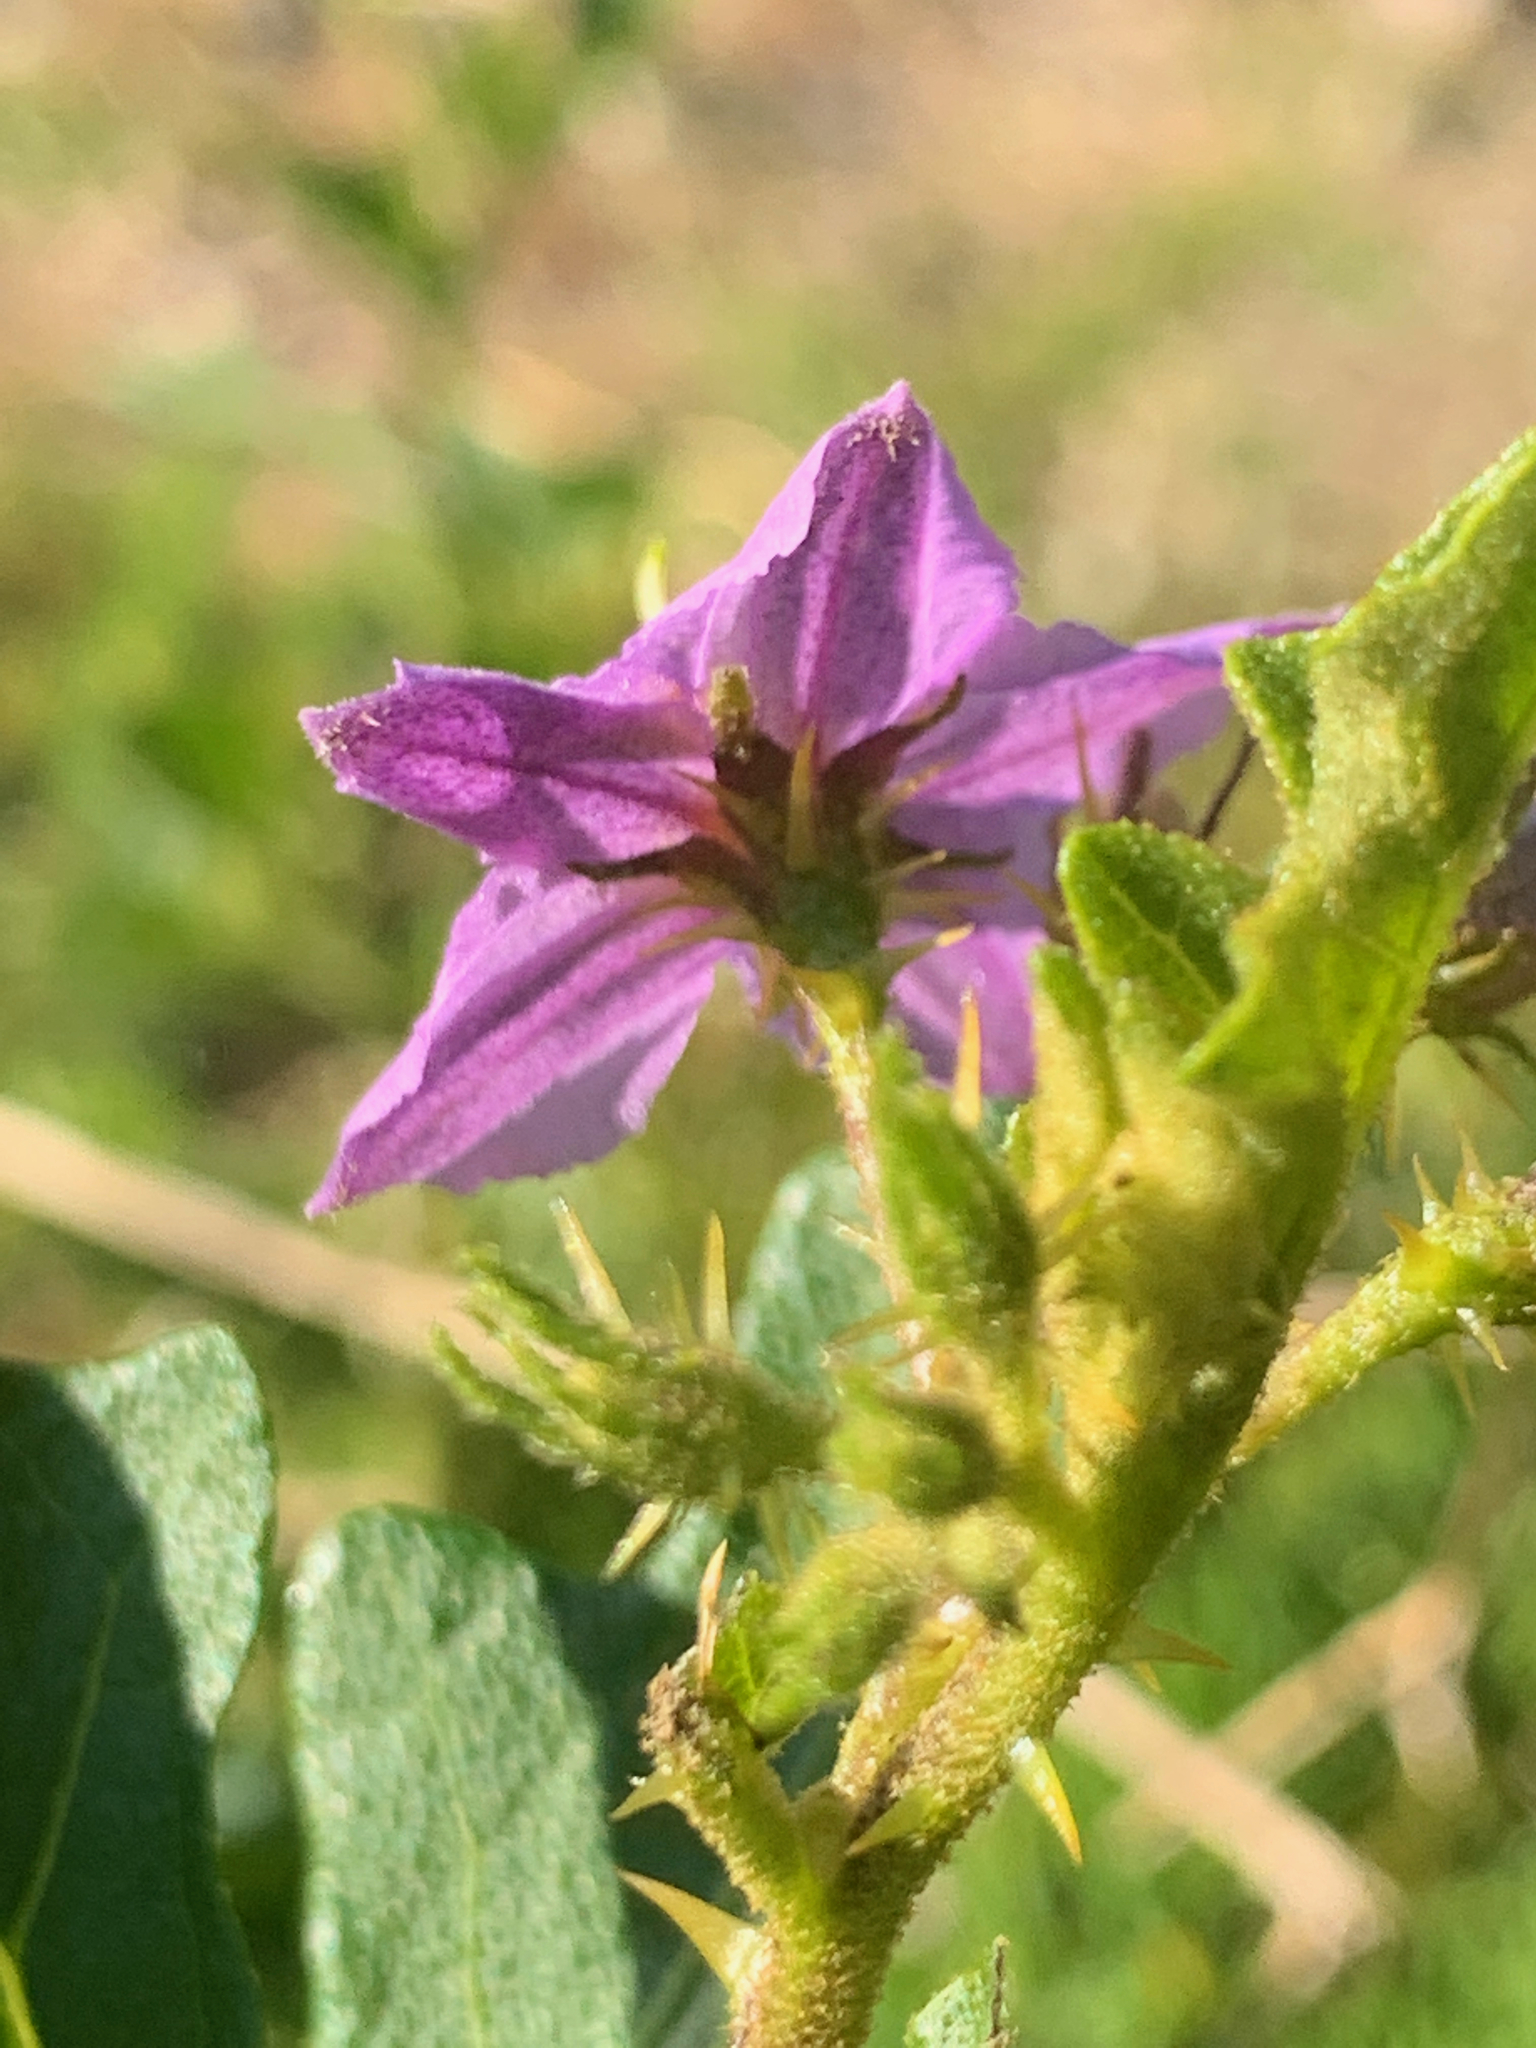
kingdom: Plantae
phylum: Tracheophyta
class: Magnoliopsida
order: Solanales
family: Solanaceae
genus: Solanum
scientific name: Solanum linnaeanum
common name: Nightshade
